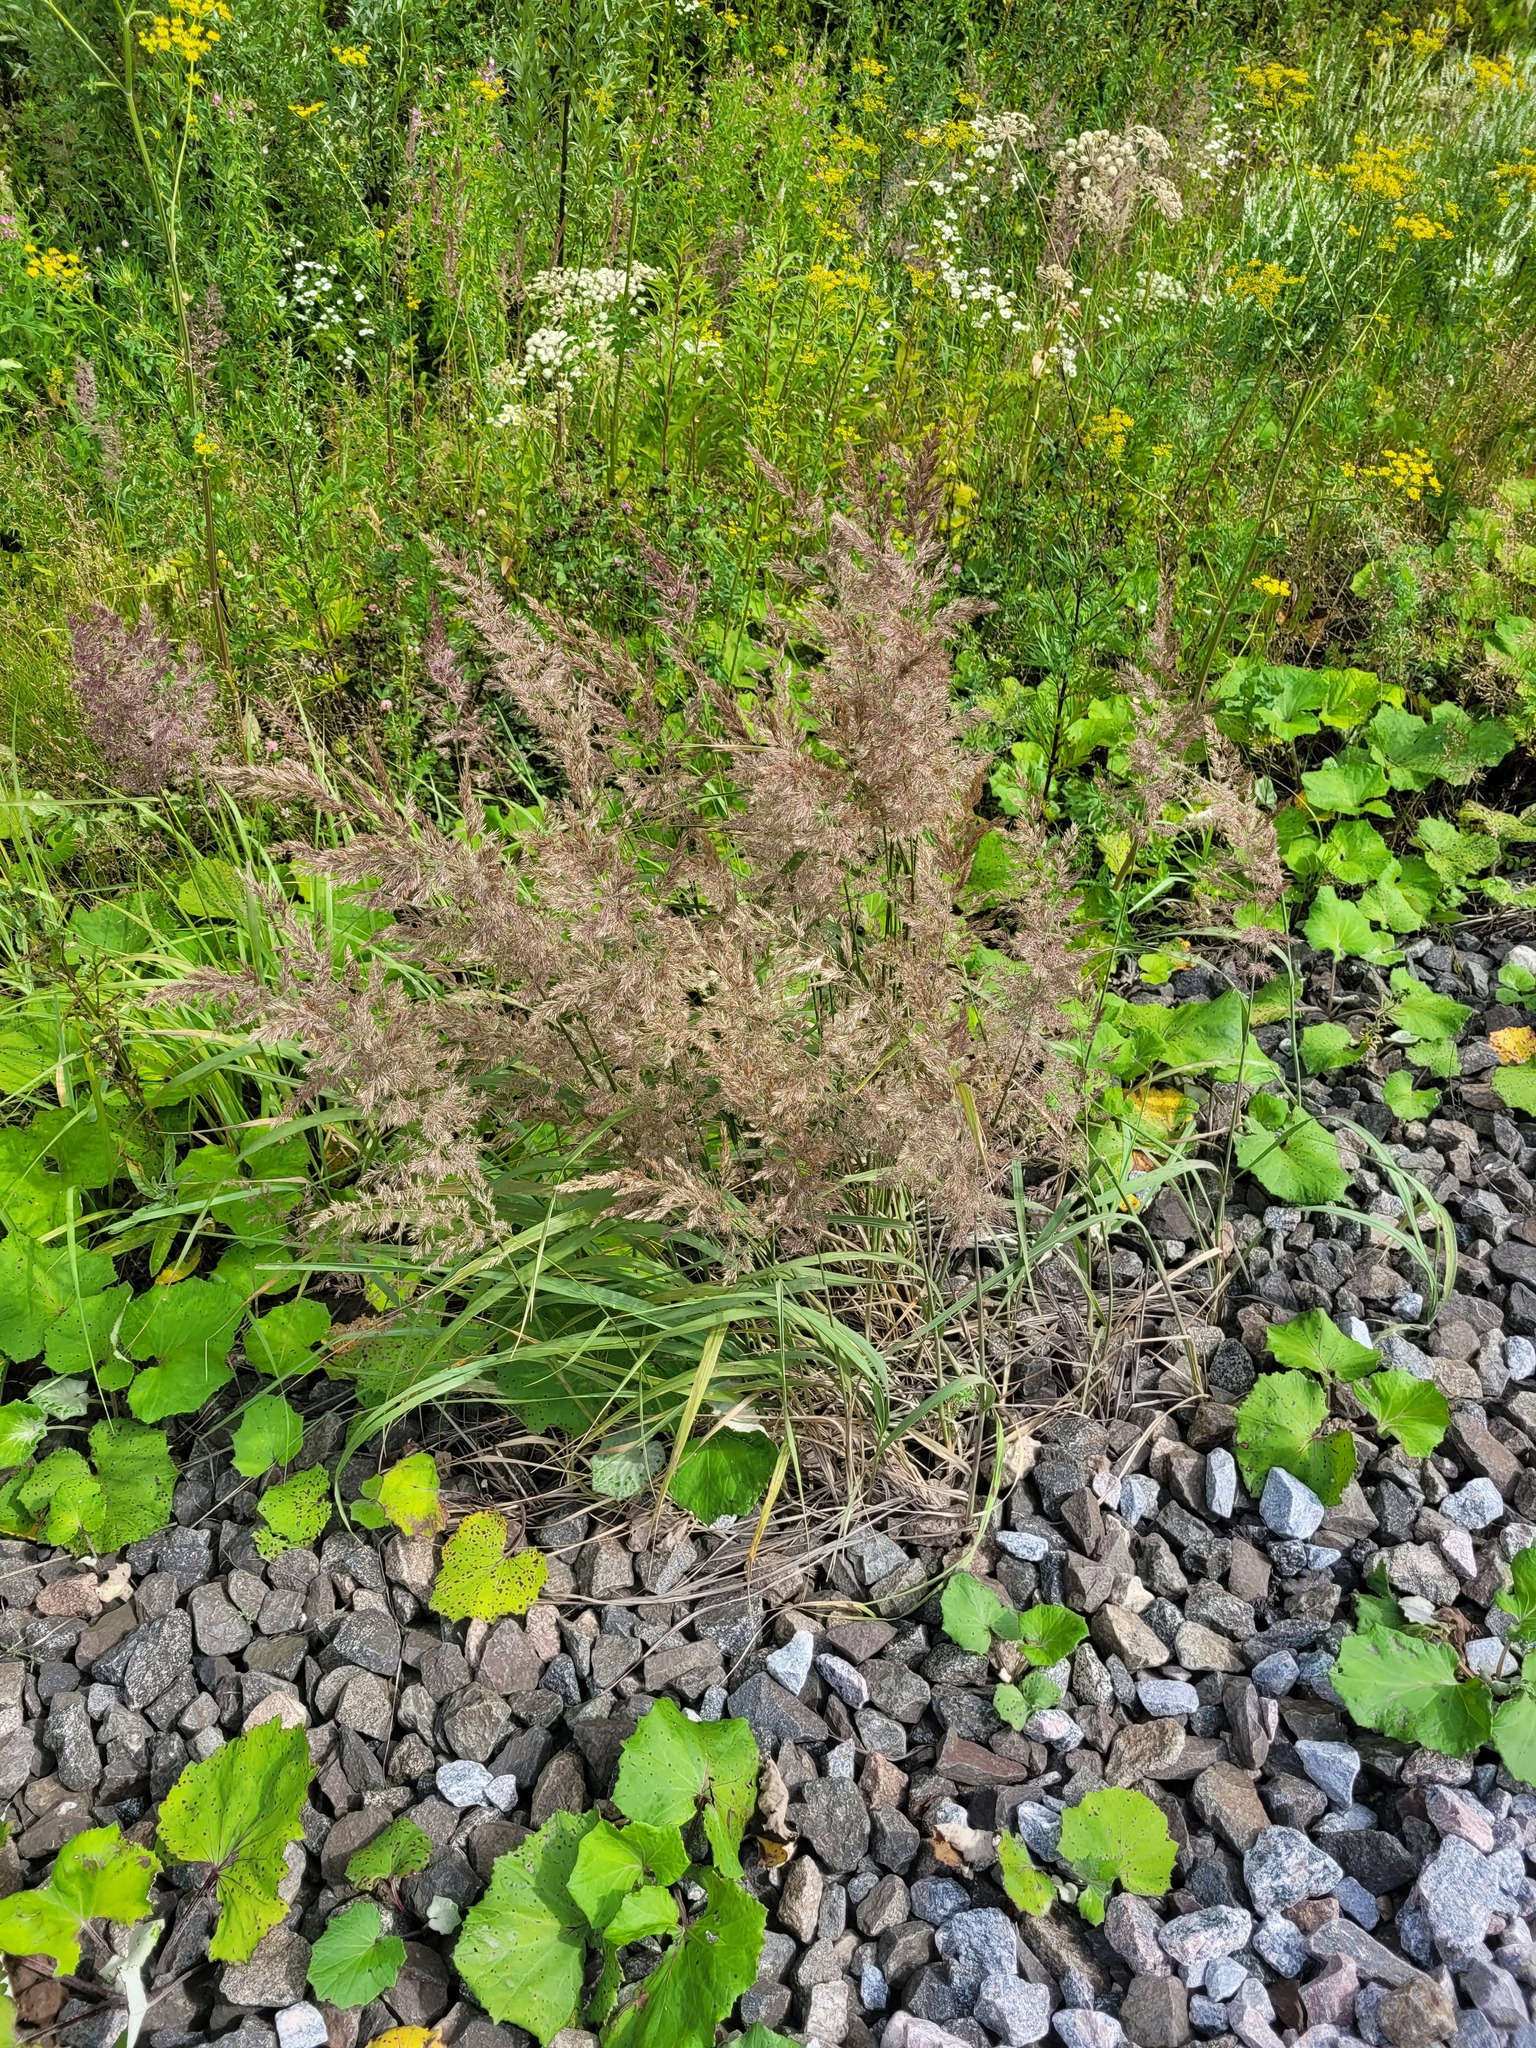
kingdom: Plantae
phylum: Tracheophyta
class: Liliopsida
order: Poales
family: Poaceae
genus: Calamagrostis
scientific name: Calamagrostis epigejos
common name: Wood small-reed
